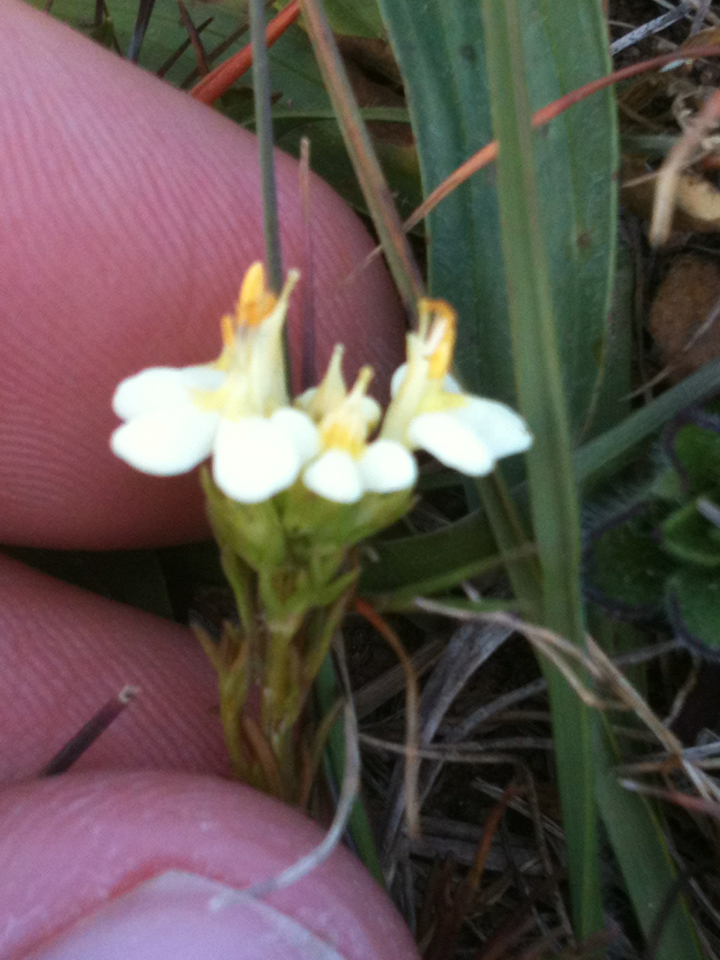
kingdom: Plantae
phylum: Tracheophyta
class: Magnoliopsida
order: Lamiales
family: Orobanchaceae
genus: Triphysaria
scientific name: Triphysaria floribunda
